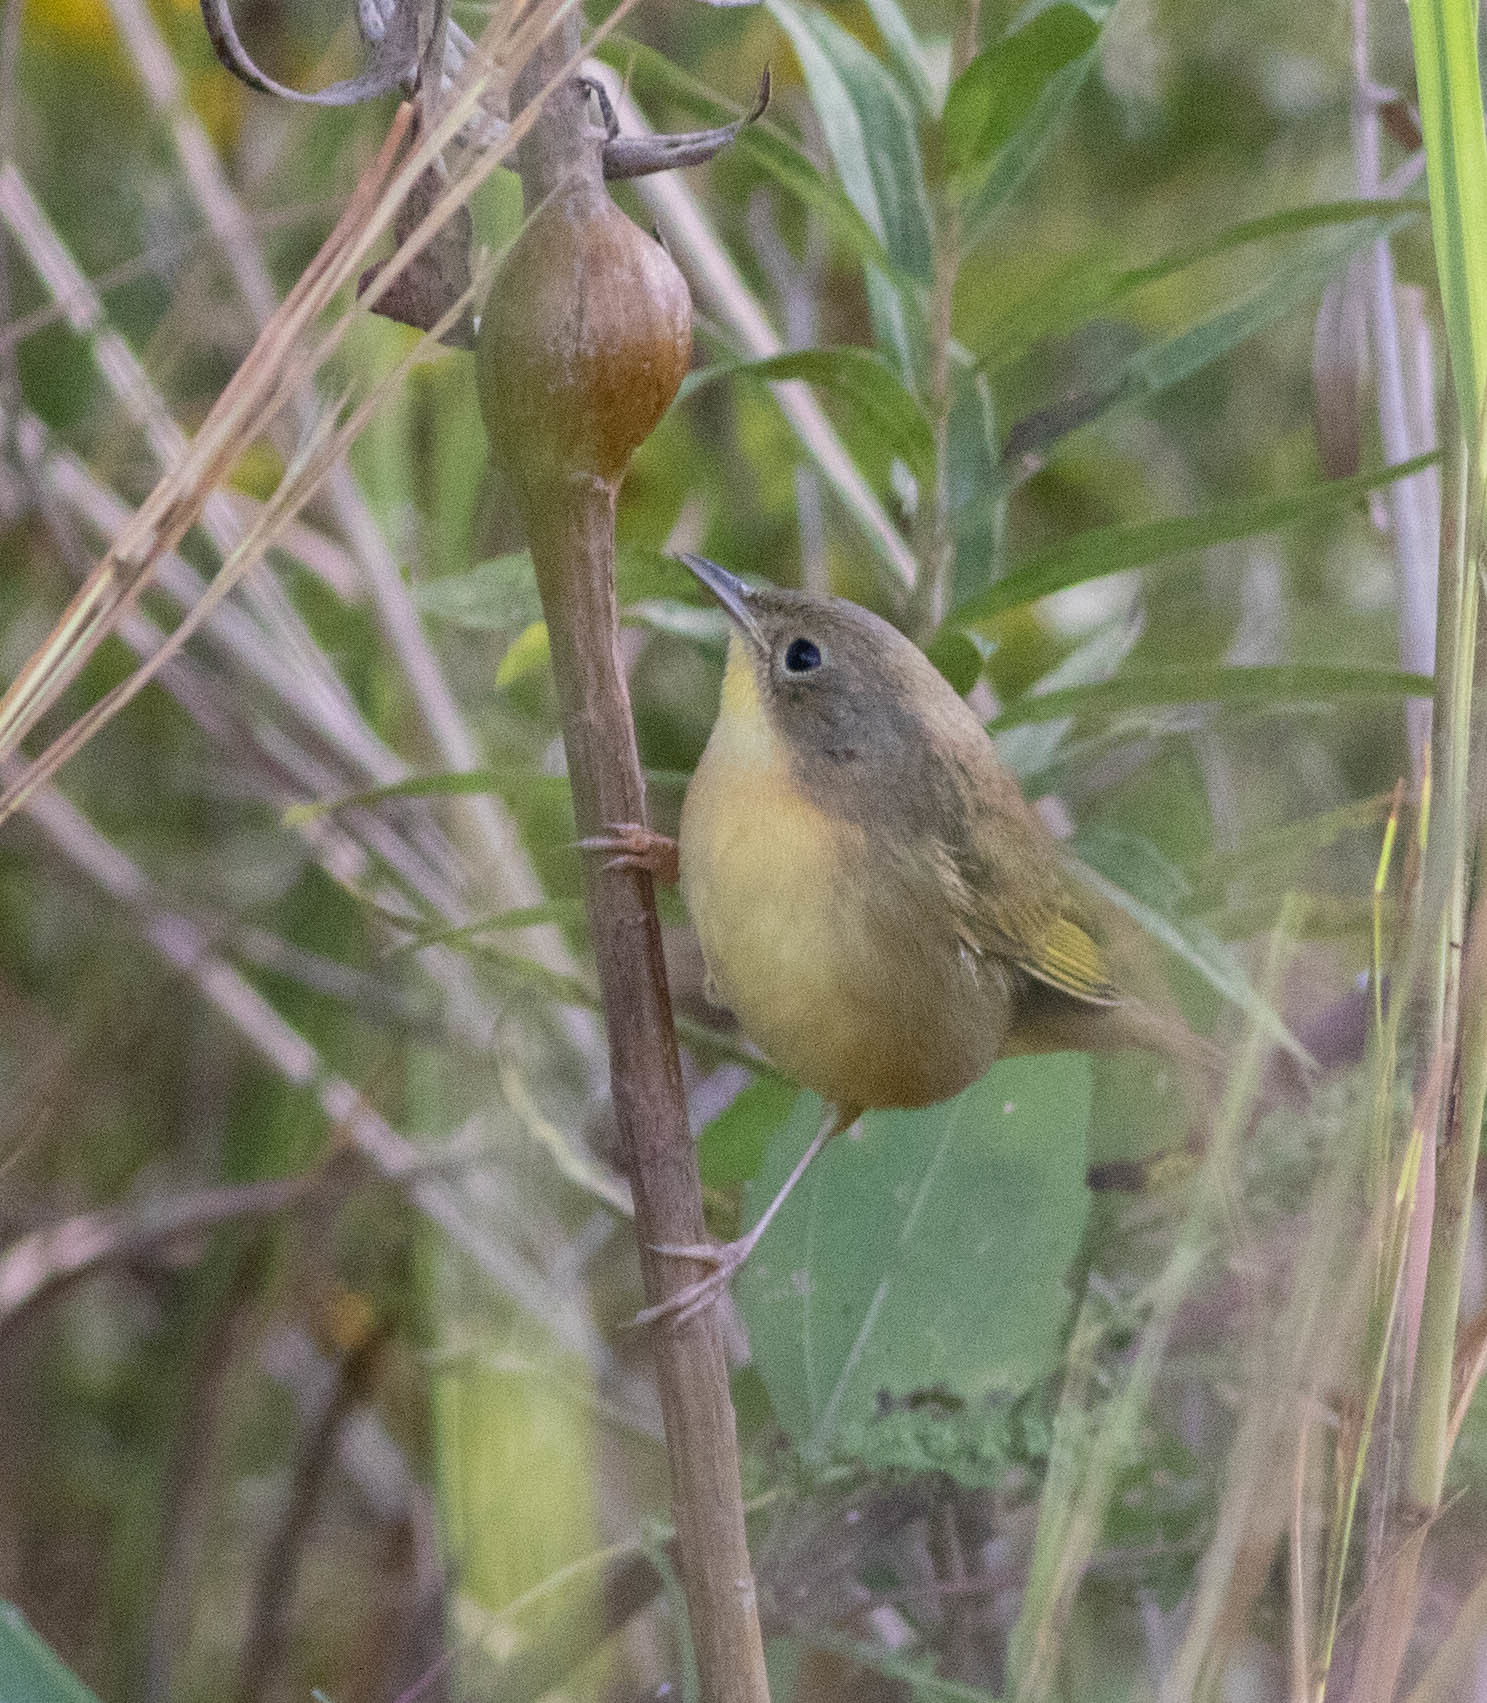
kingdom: Animalia
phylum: Chordata
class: Aves
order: Passeriformes
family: Parulidae
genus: Geothlypis
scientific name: Geothlypis trichas
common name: Common yellowthroat
